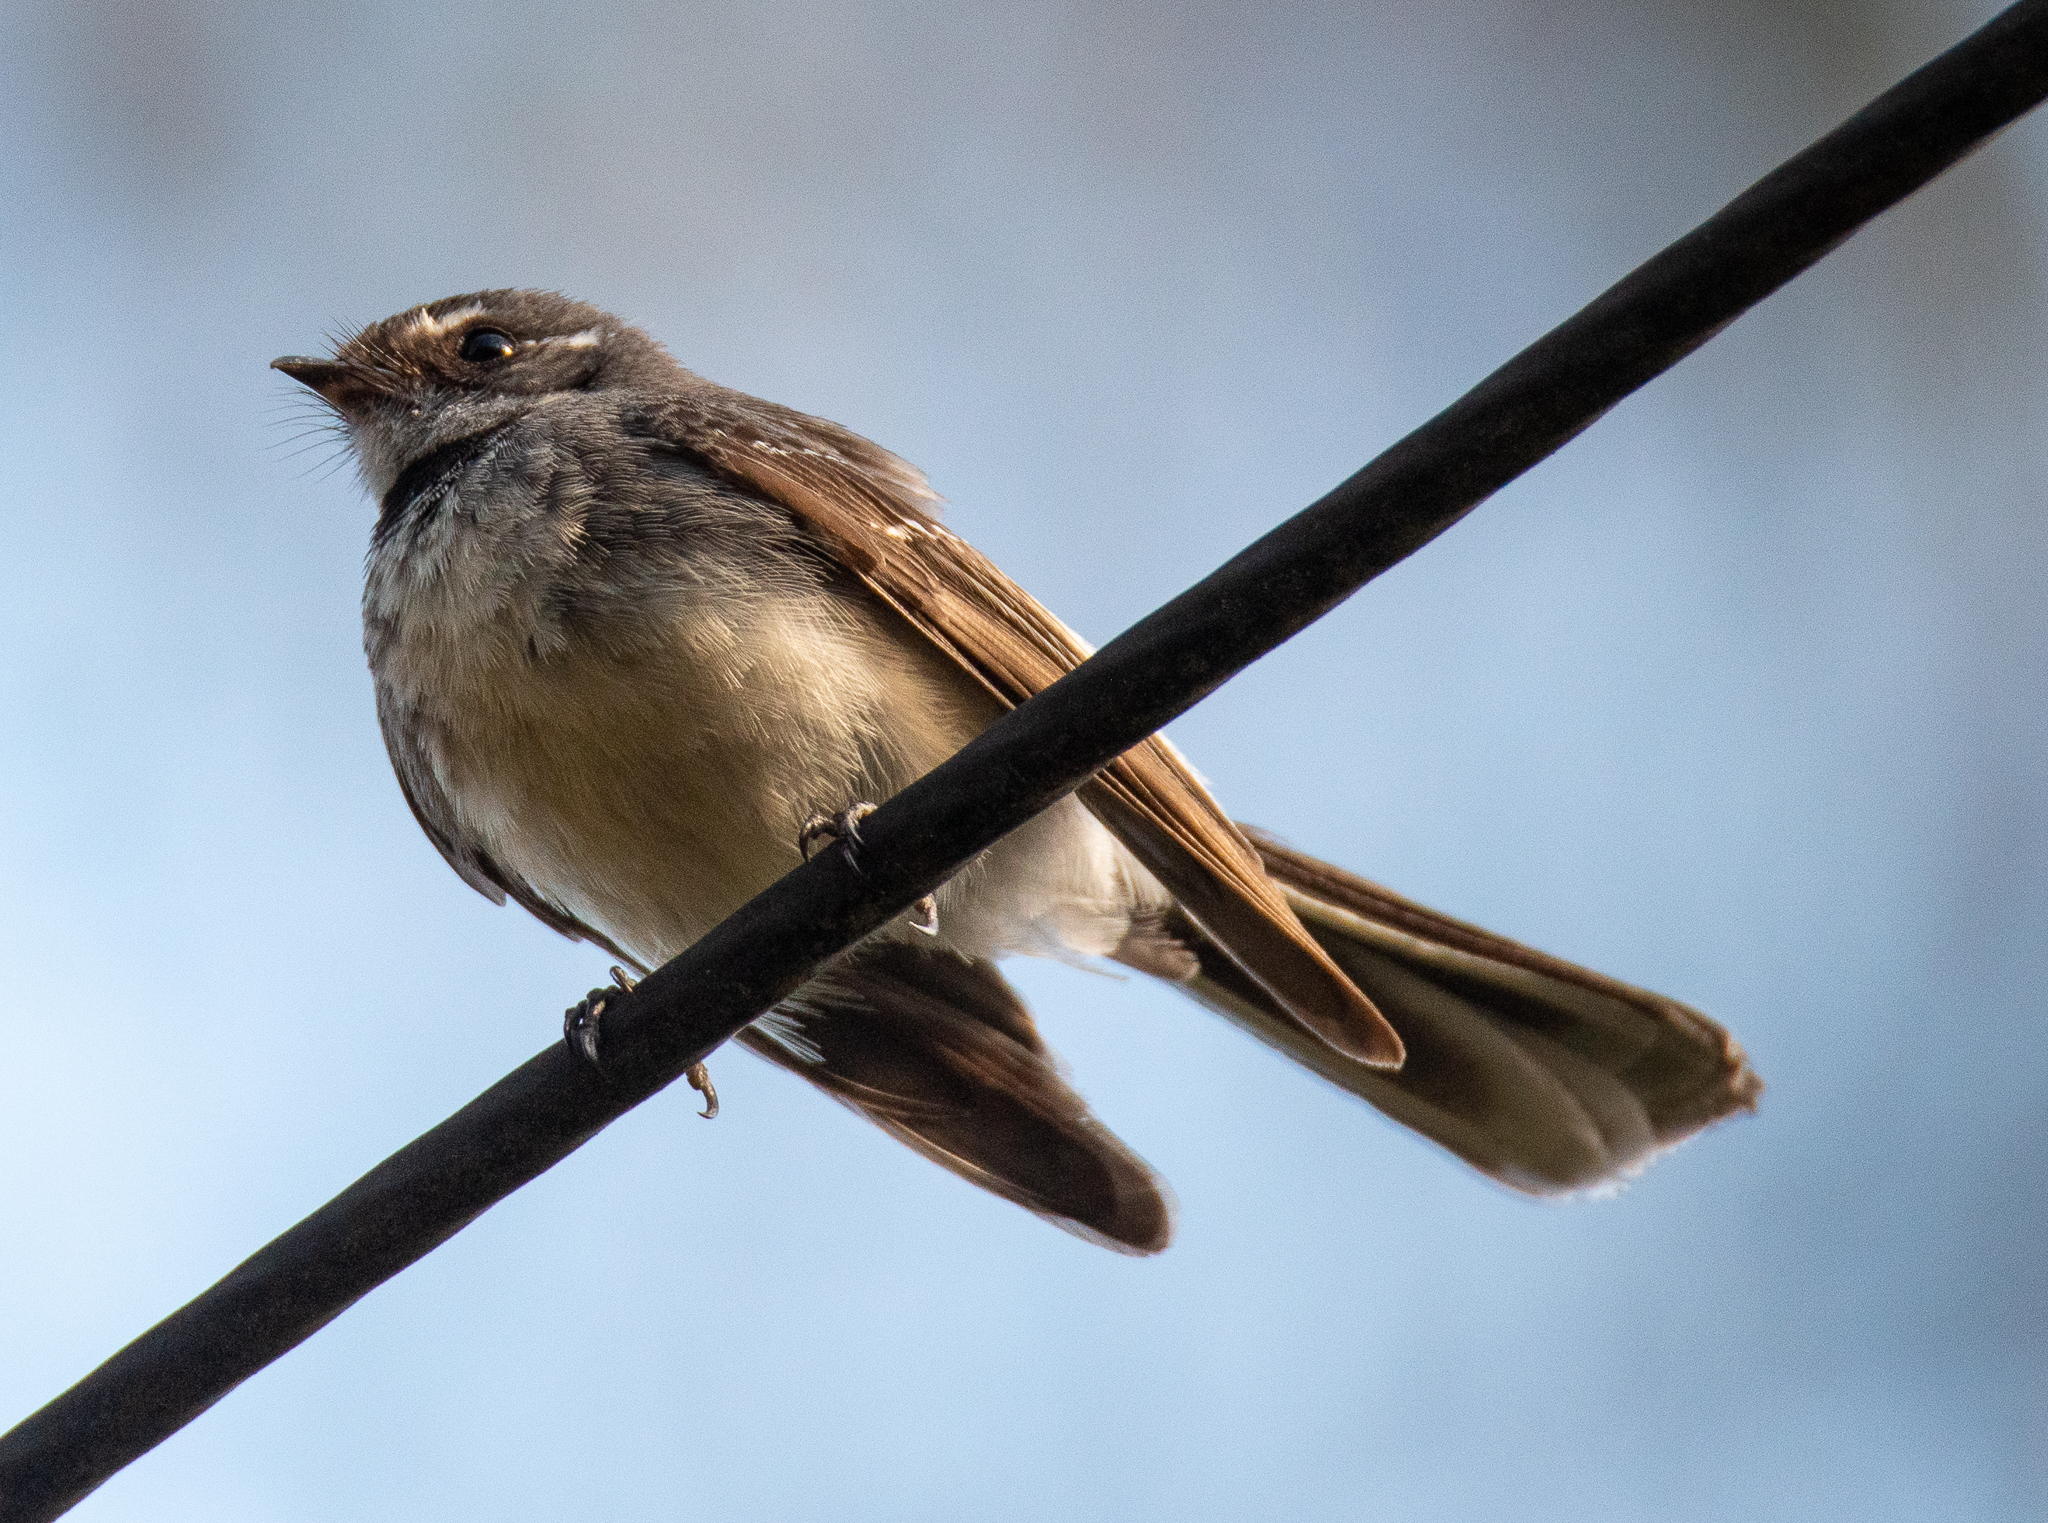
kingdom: Animalia
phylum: Chordata
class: Aves
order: Passeriformes
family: Rhipiduridae
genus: Rhipidura
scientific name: Rhipidura albiscapa
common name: Grey fantail
